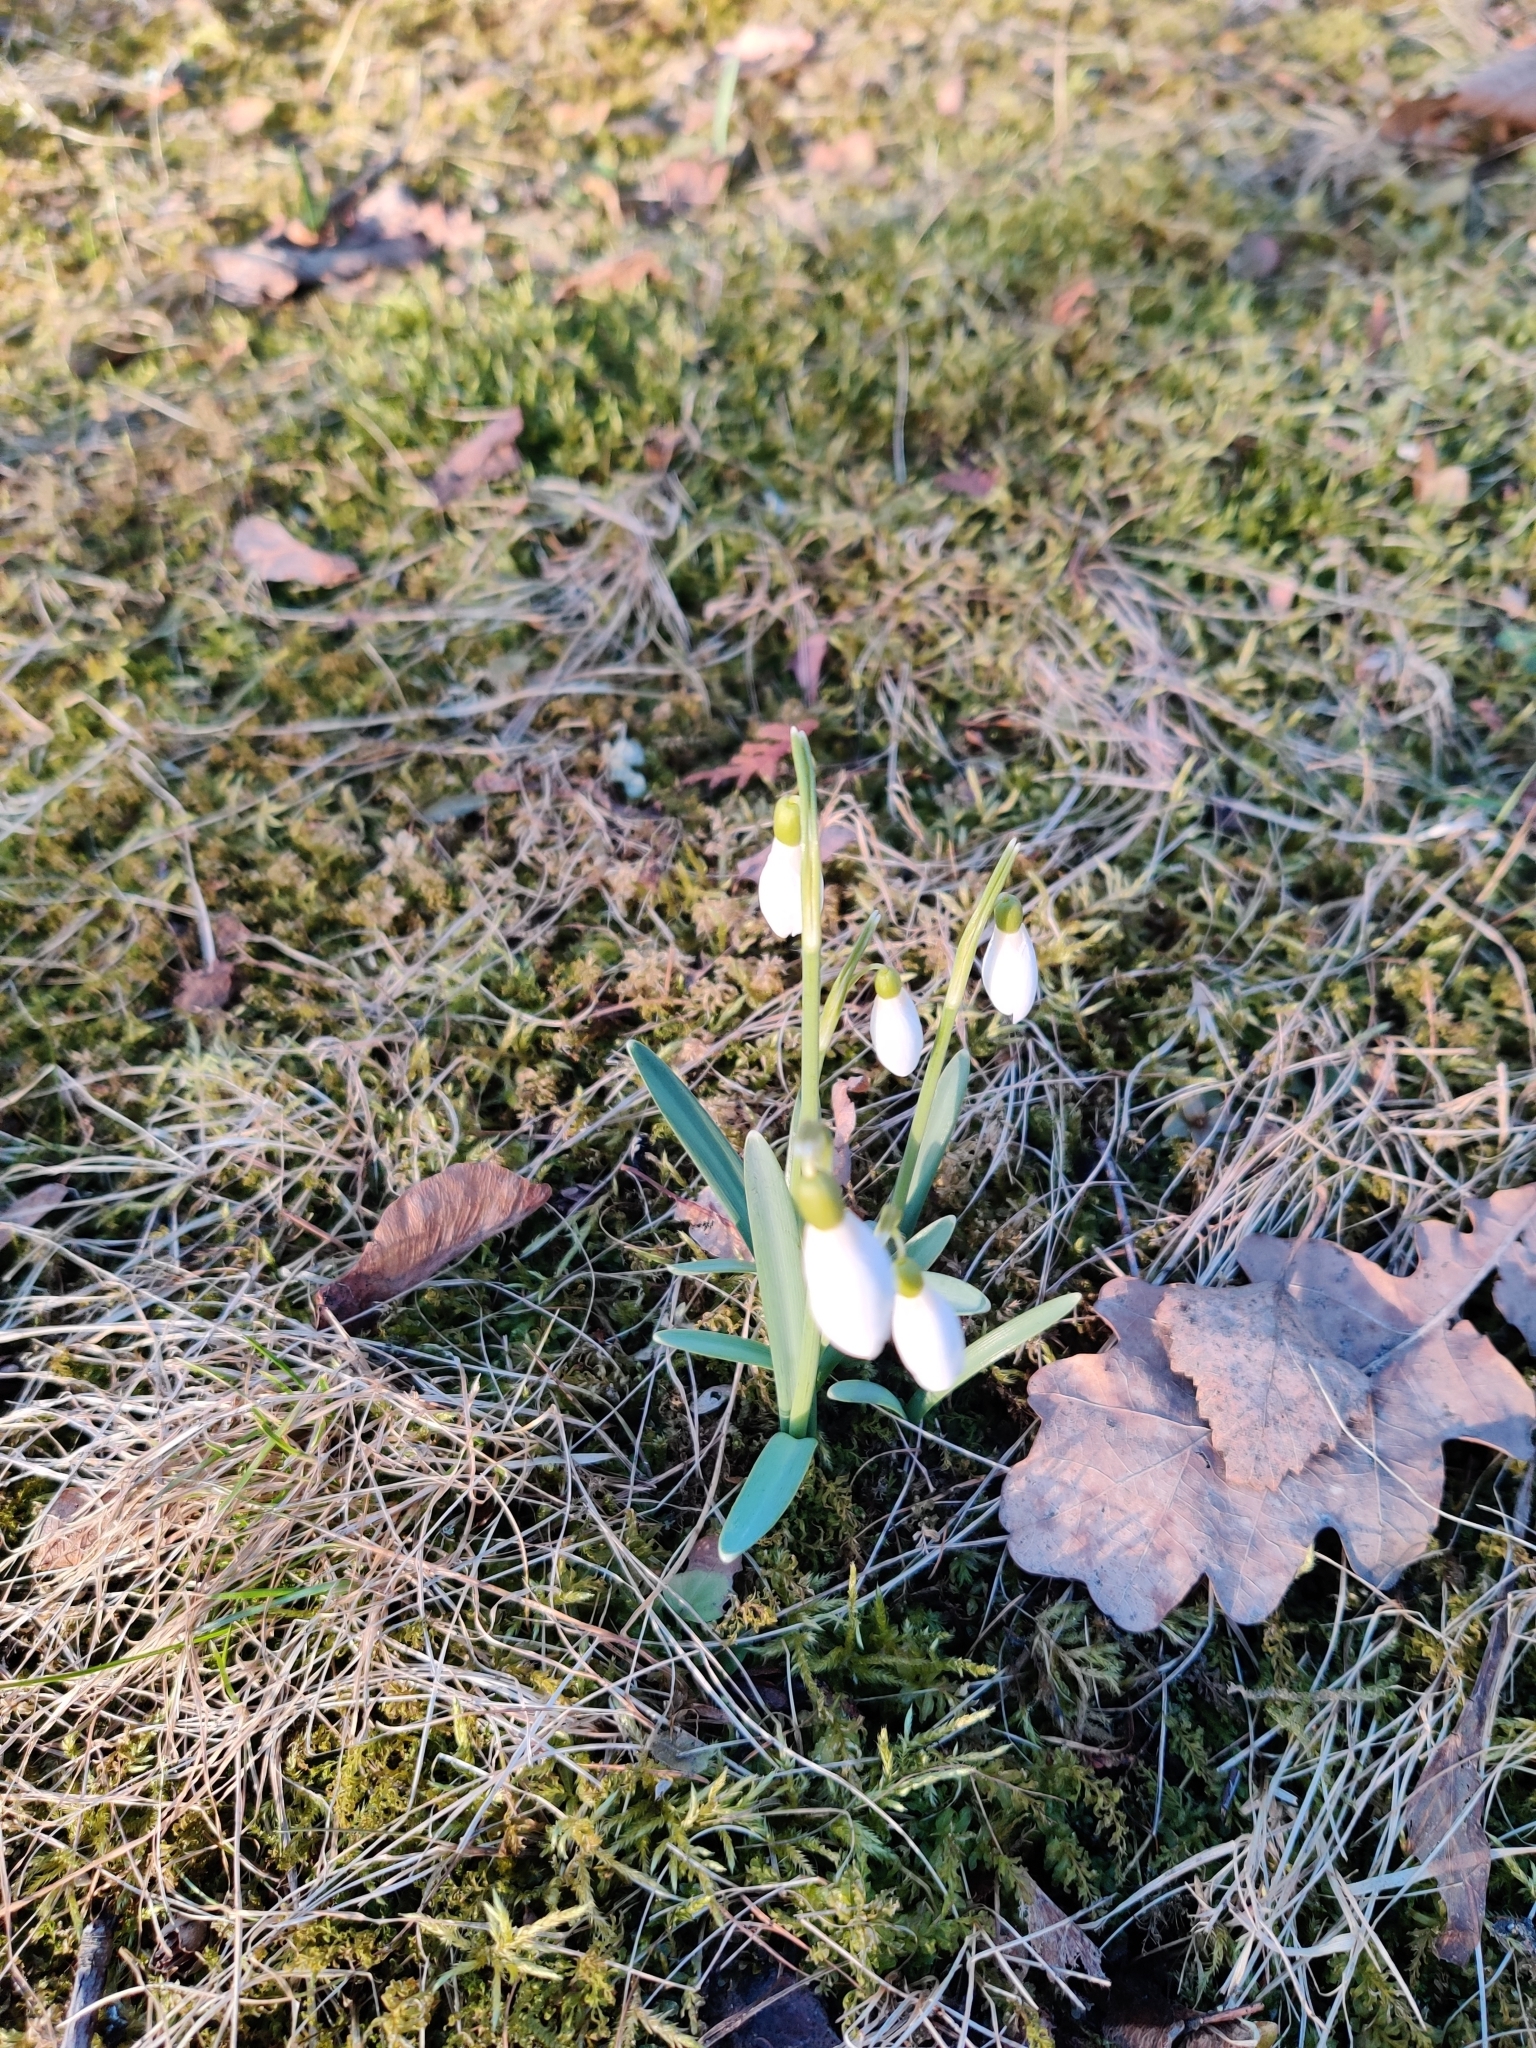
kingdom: Plantae
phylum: Tracheophyta
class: Liliopsida
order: Asparagales
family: Amaryllidaceae
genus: Galanthus
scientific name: Galanthus nivalis
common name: Snowdrop
